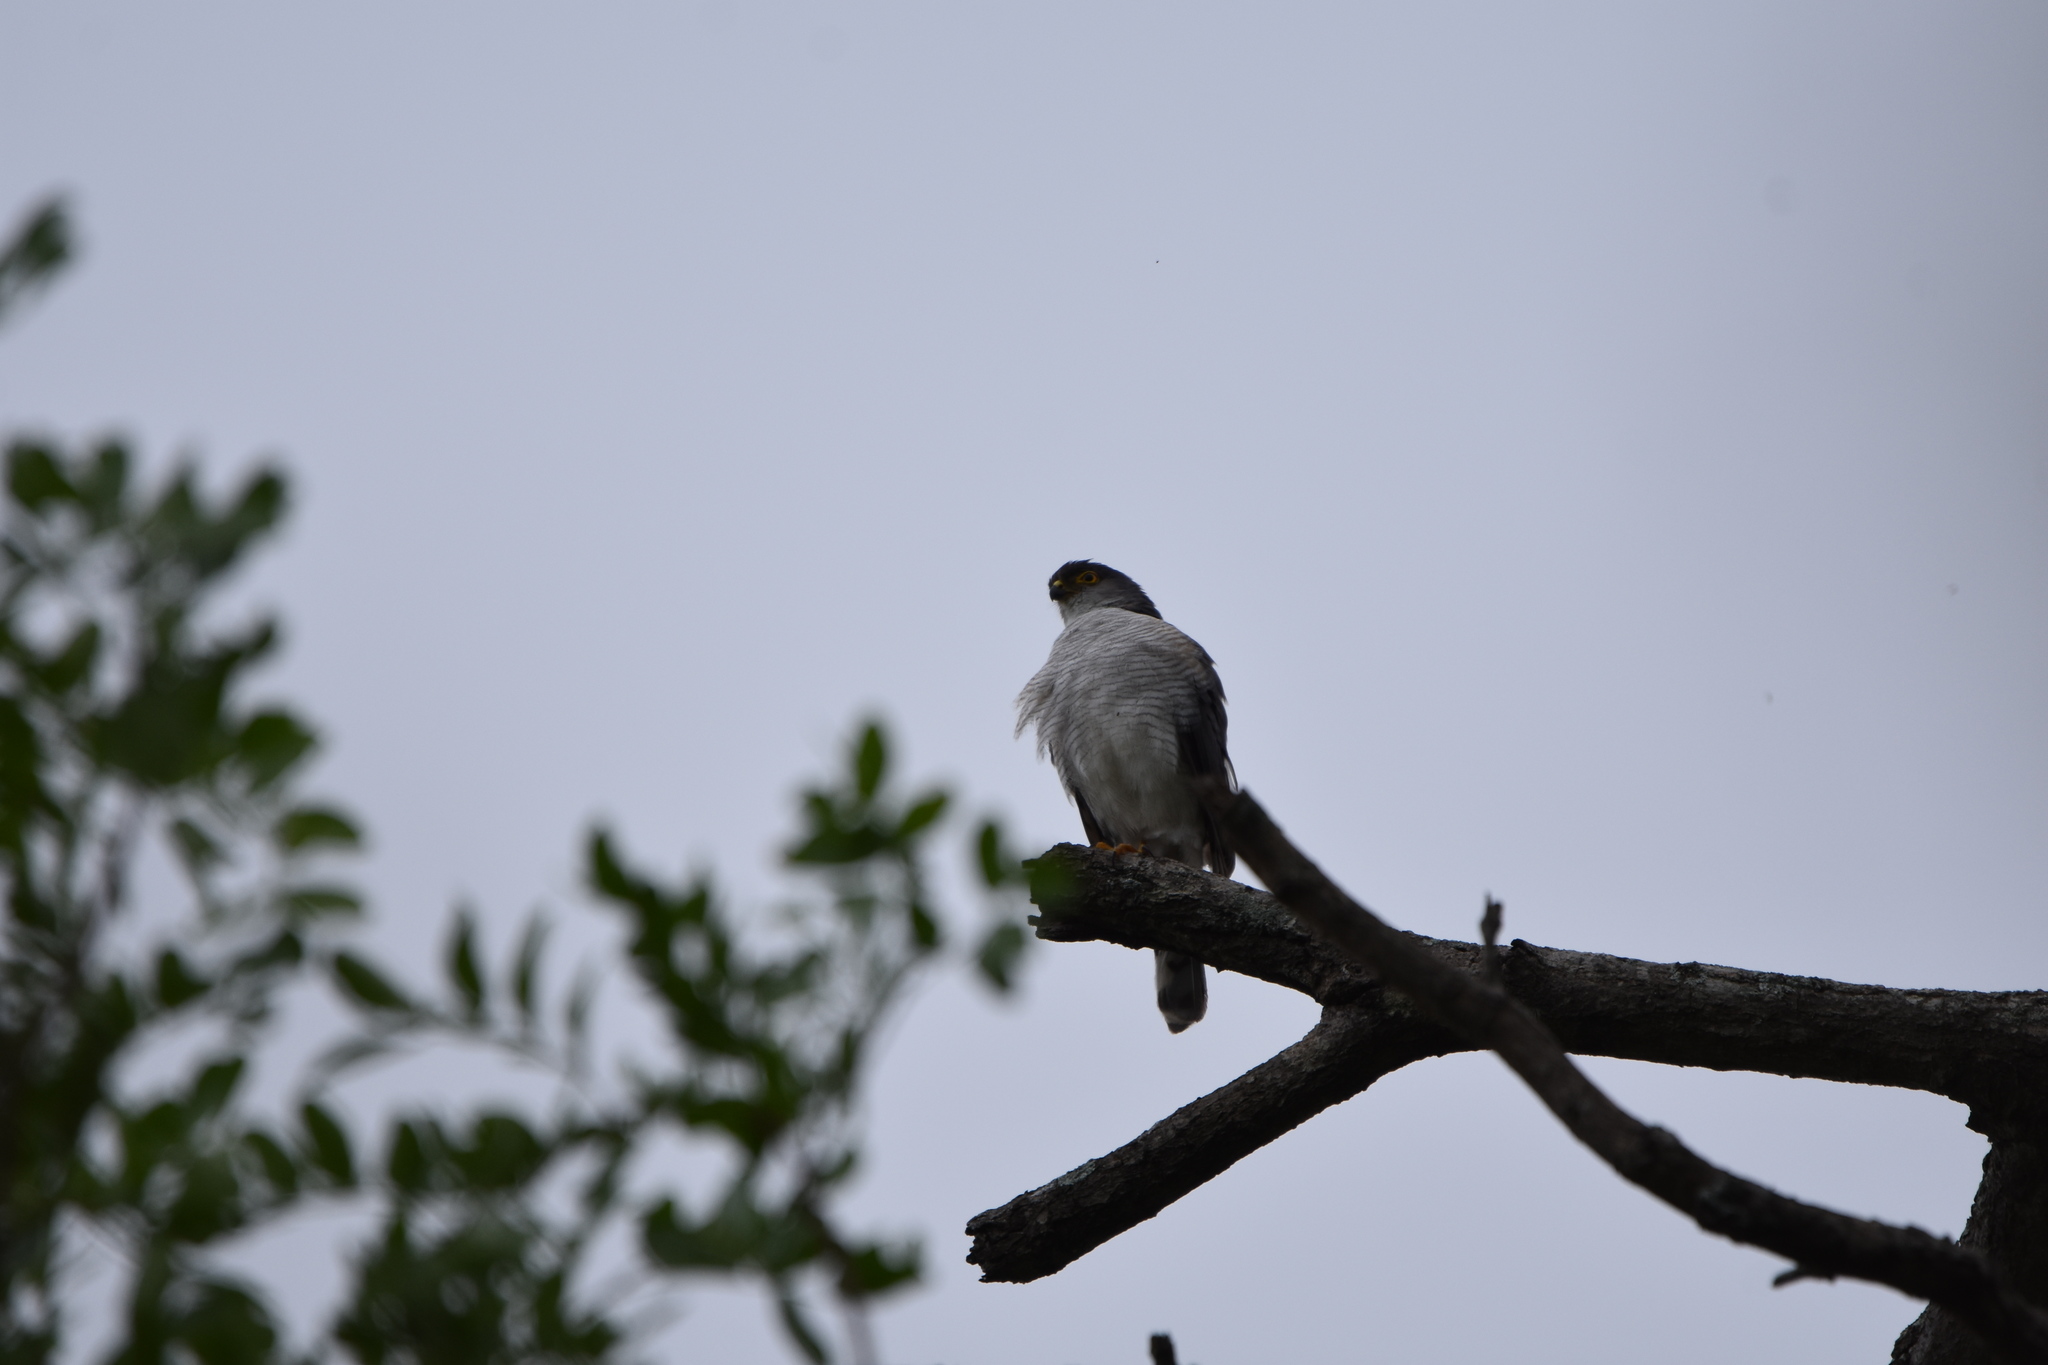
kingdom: Animalia
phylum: Chordata
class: Aves
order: Accipitriformes
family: Accipitridae
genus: Accipiter
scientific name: Accipiter minullus
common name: Little sparrowhawk
